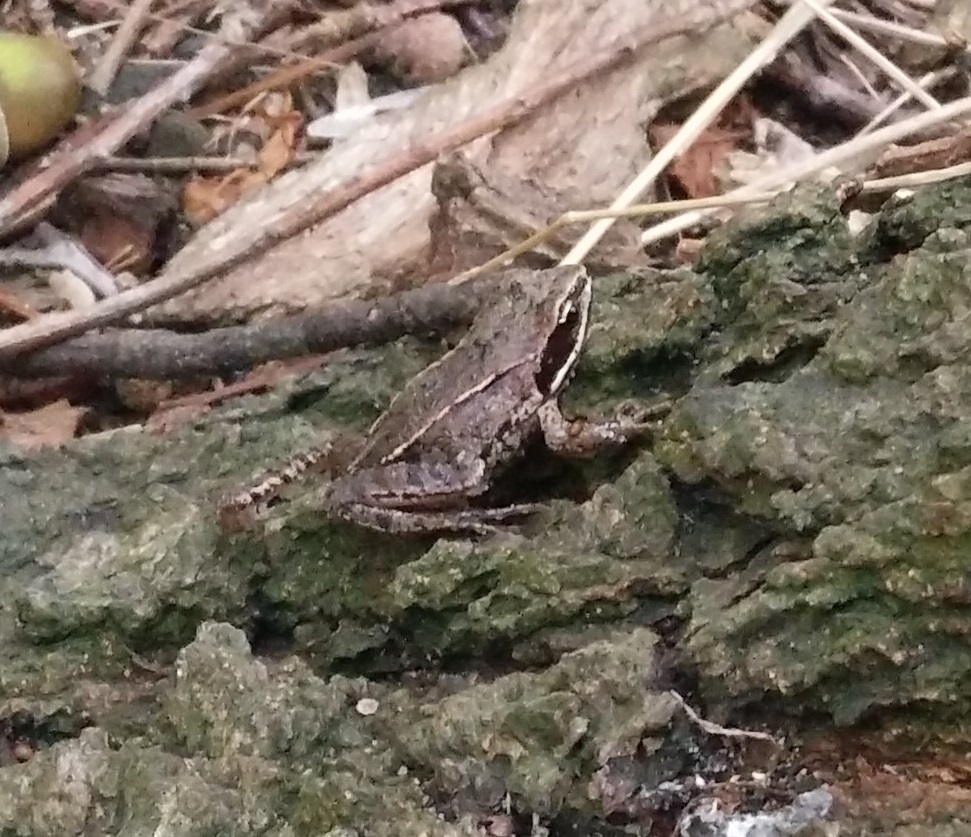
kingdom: Animalia
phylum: Chordata
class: Amphibia
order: Anura
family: Ranidae
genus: Rana
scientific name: Rana temporaria
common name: Common frog
